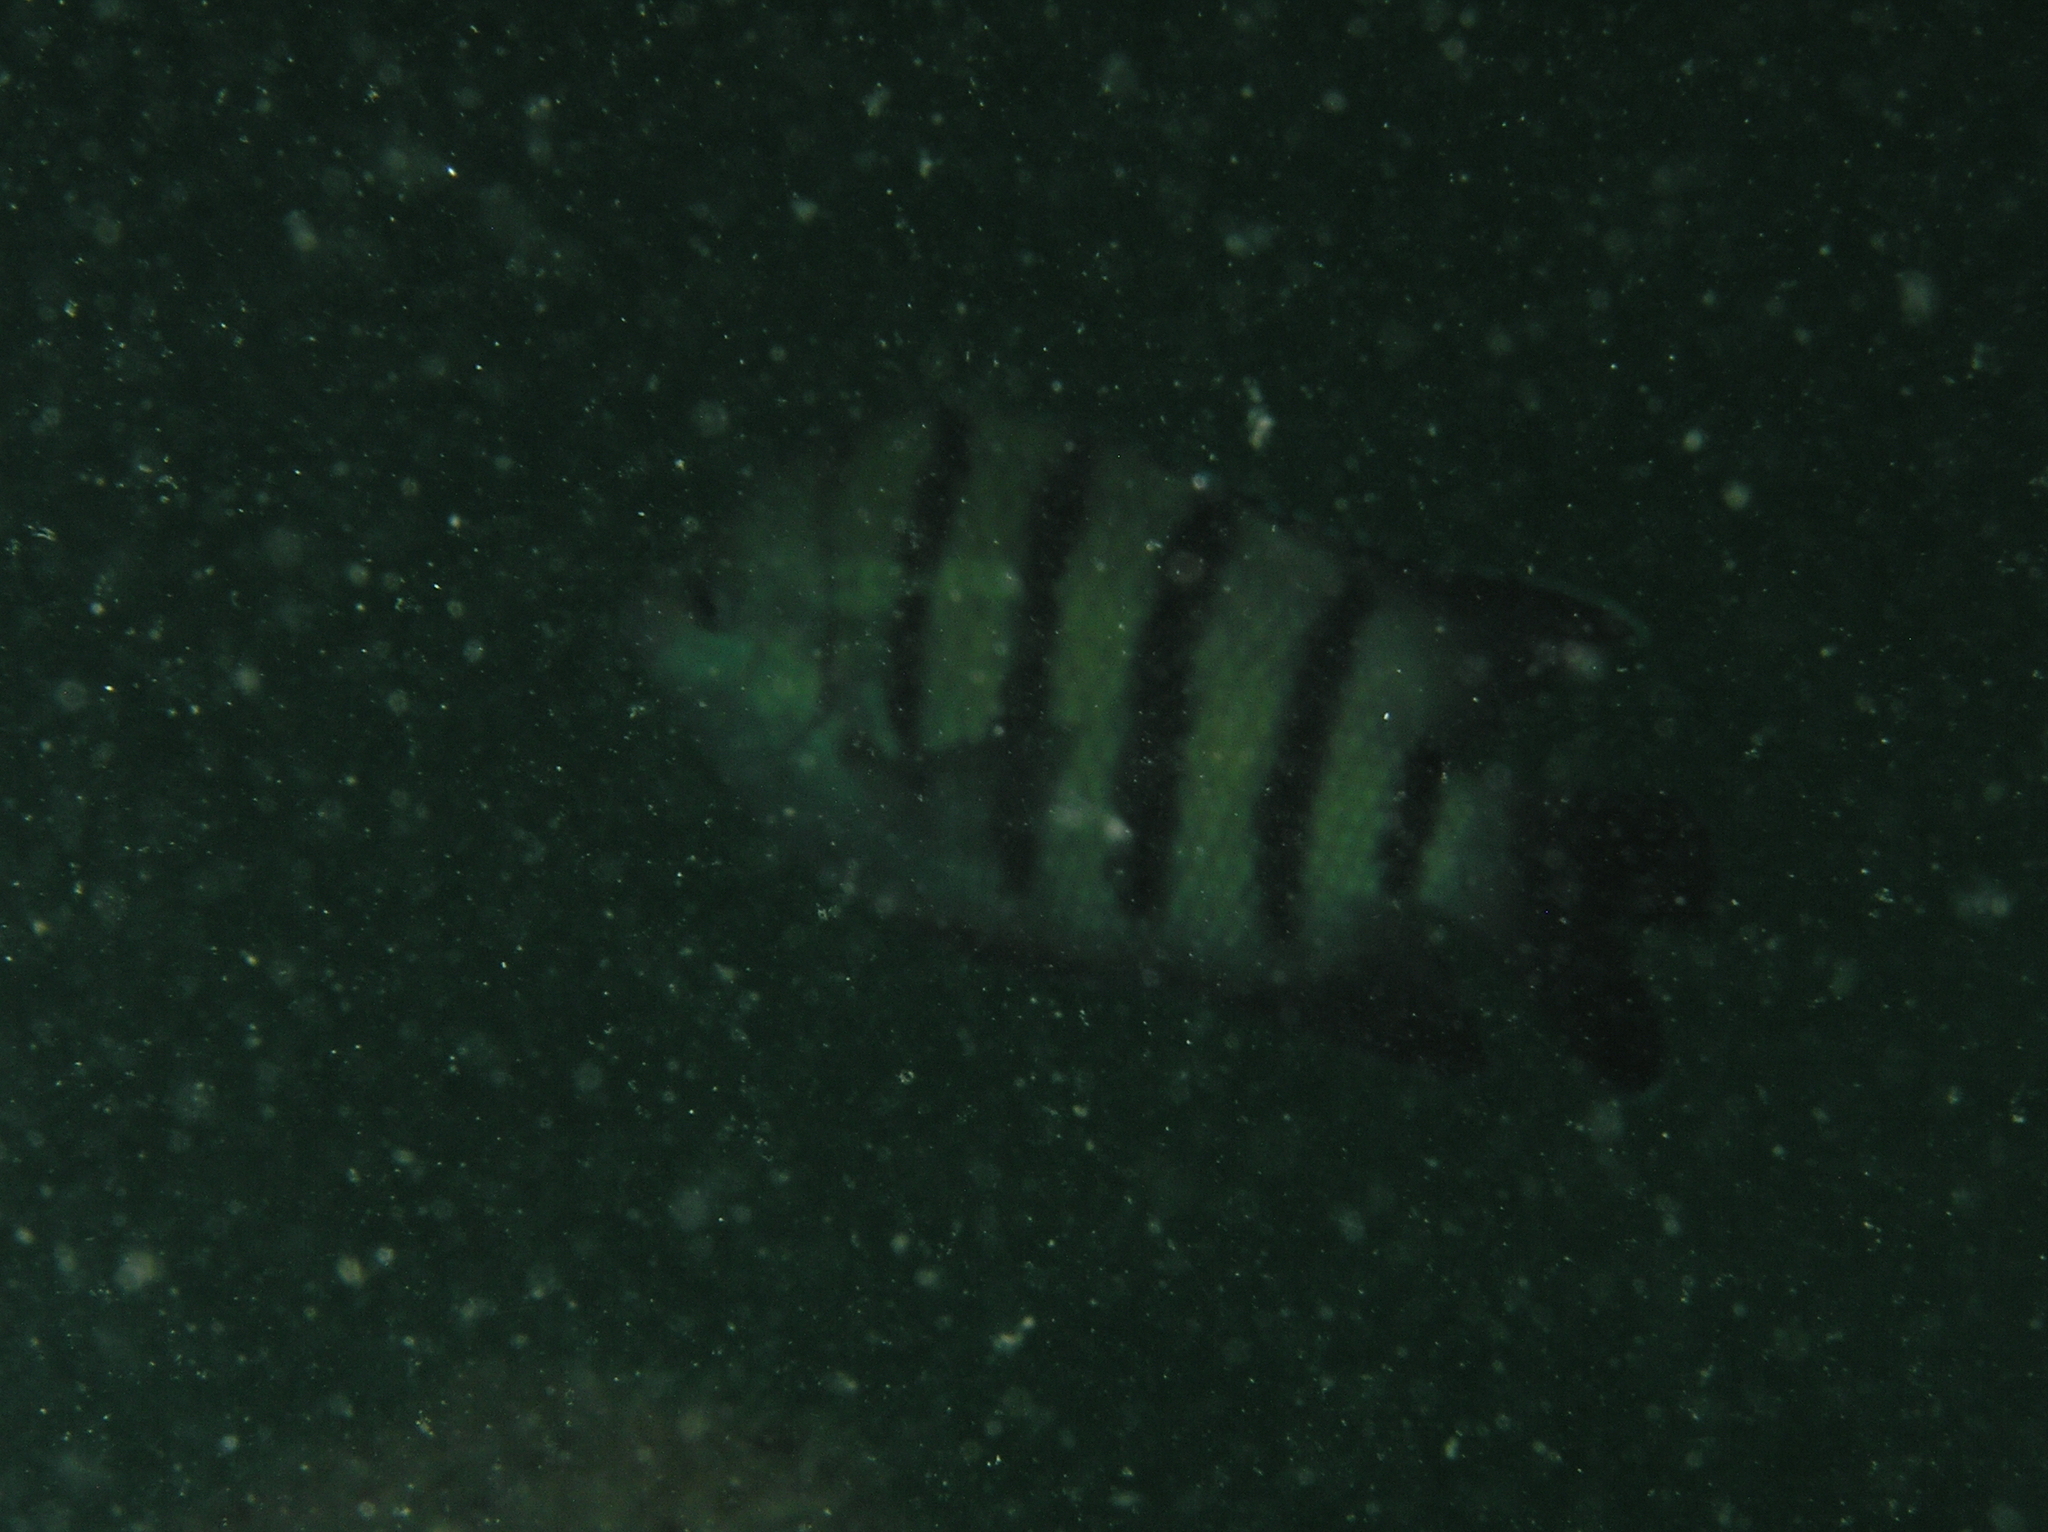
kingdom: Animalia
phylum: Chordata
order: Perciformes
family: Pomacentridae
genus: Abudefduf
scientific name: Abudefduf bengalensis
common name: Bengal sergeant
